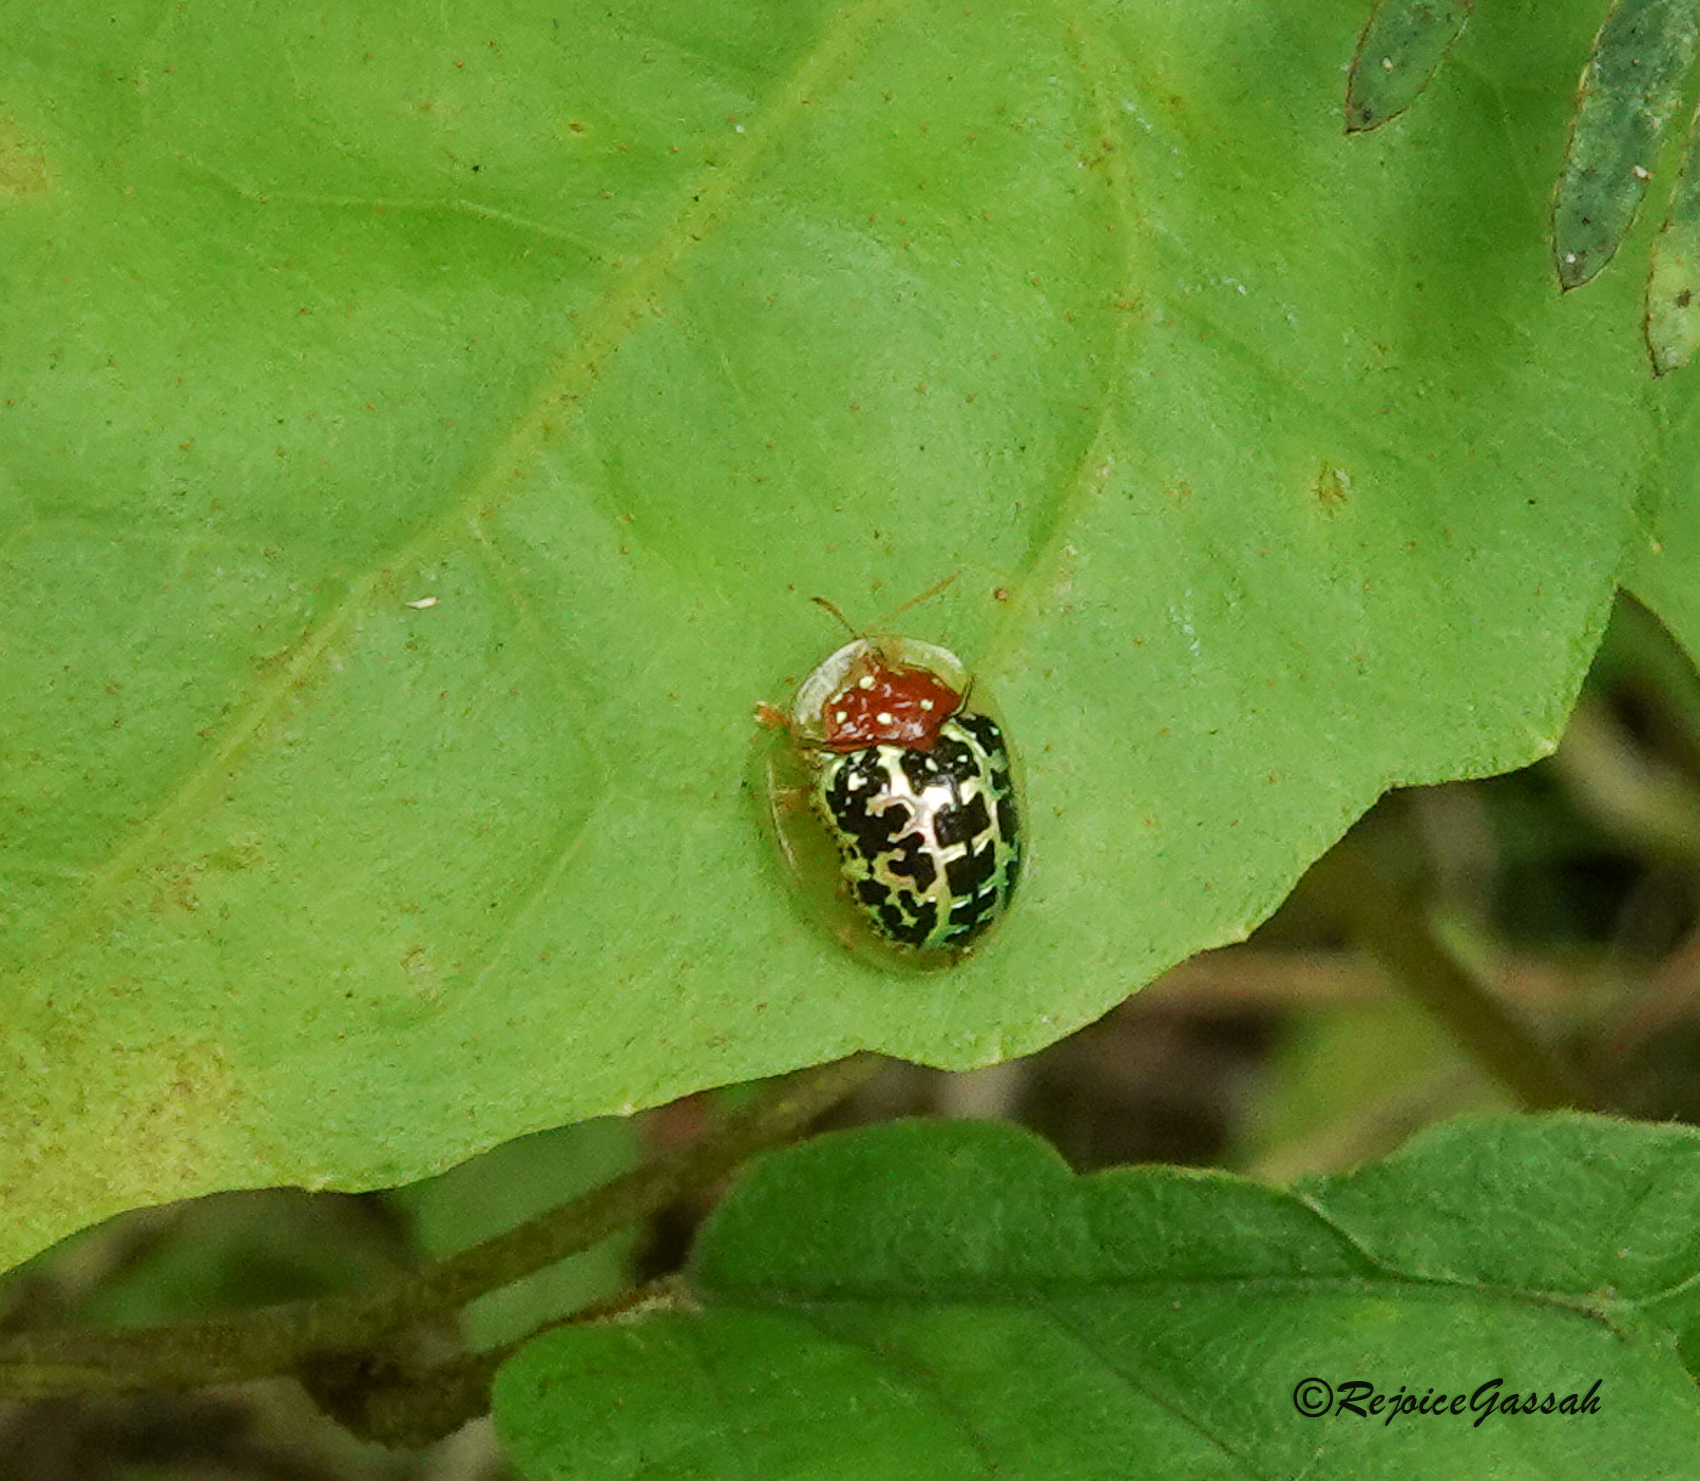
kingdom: Animalia
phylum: Arthropoda
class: Insecta
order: Coleoptera
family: Chrysomelidae
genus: Chiridopsis
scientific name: Chiridopsis mimica
